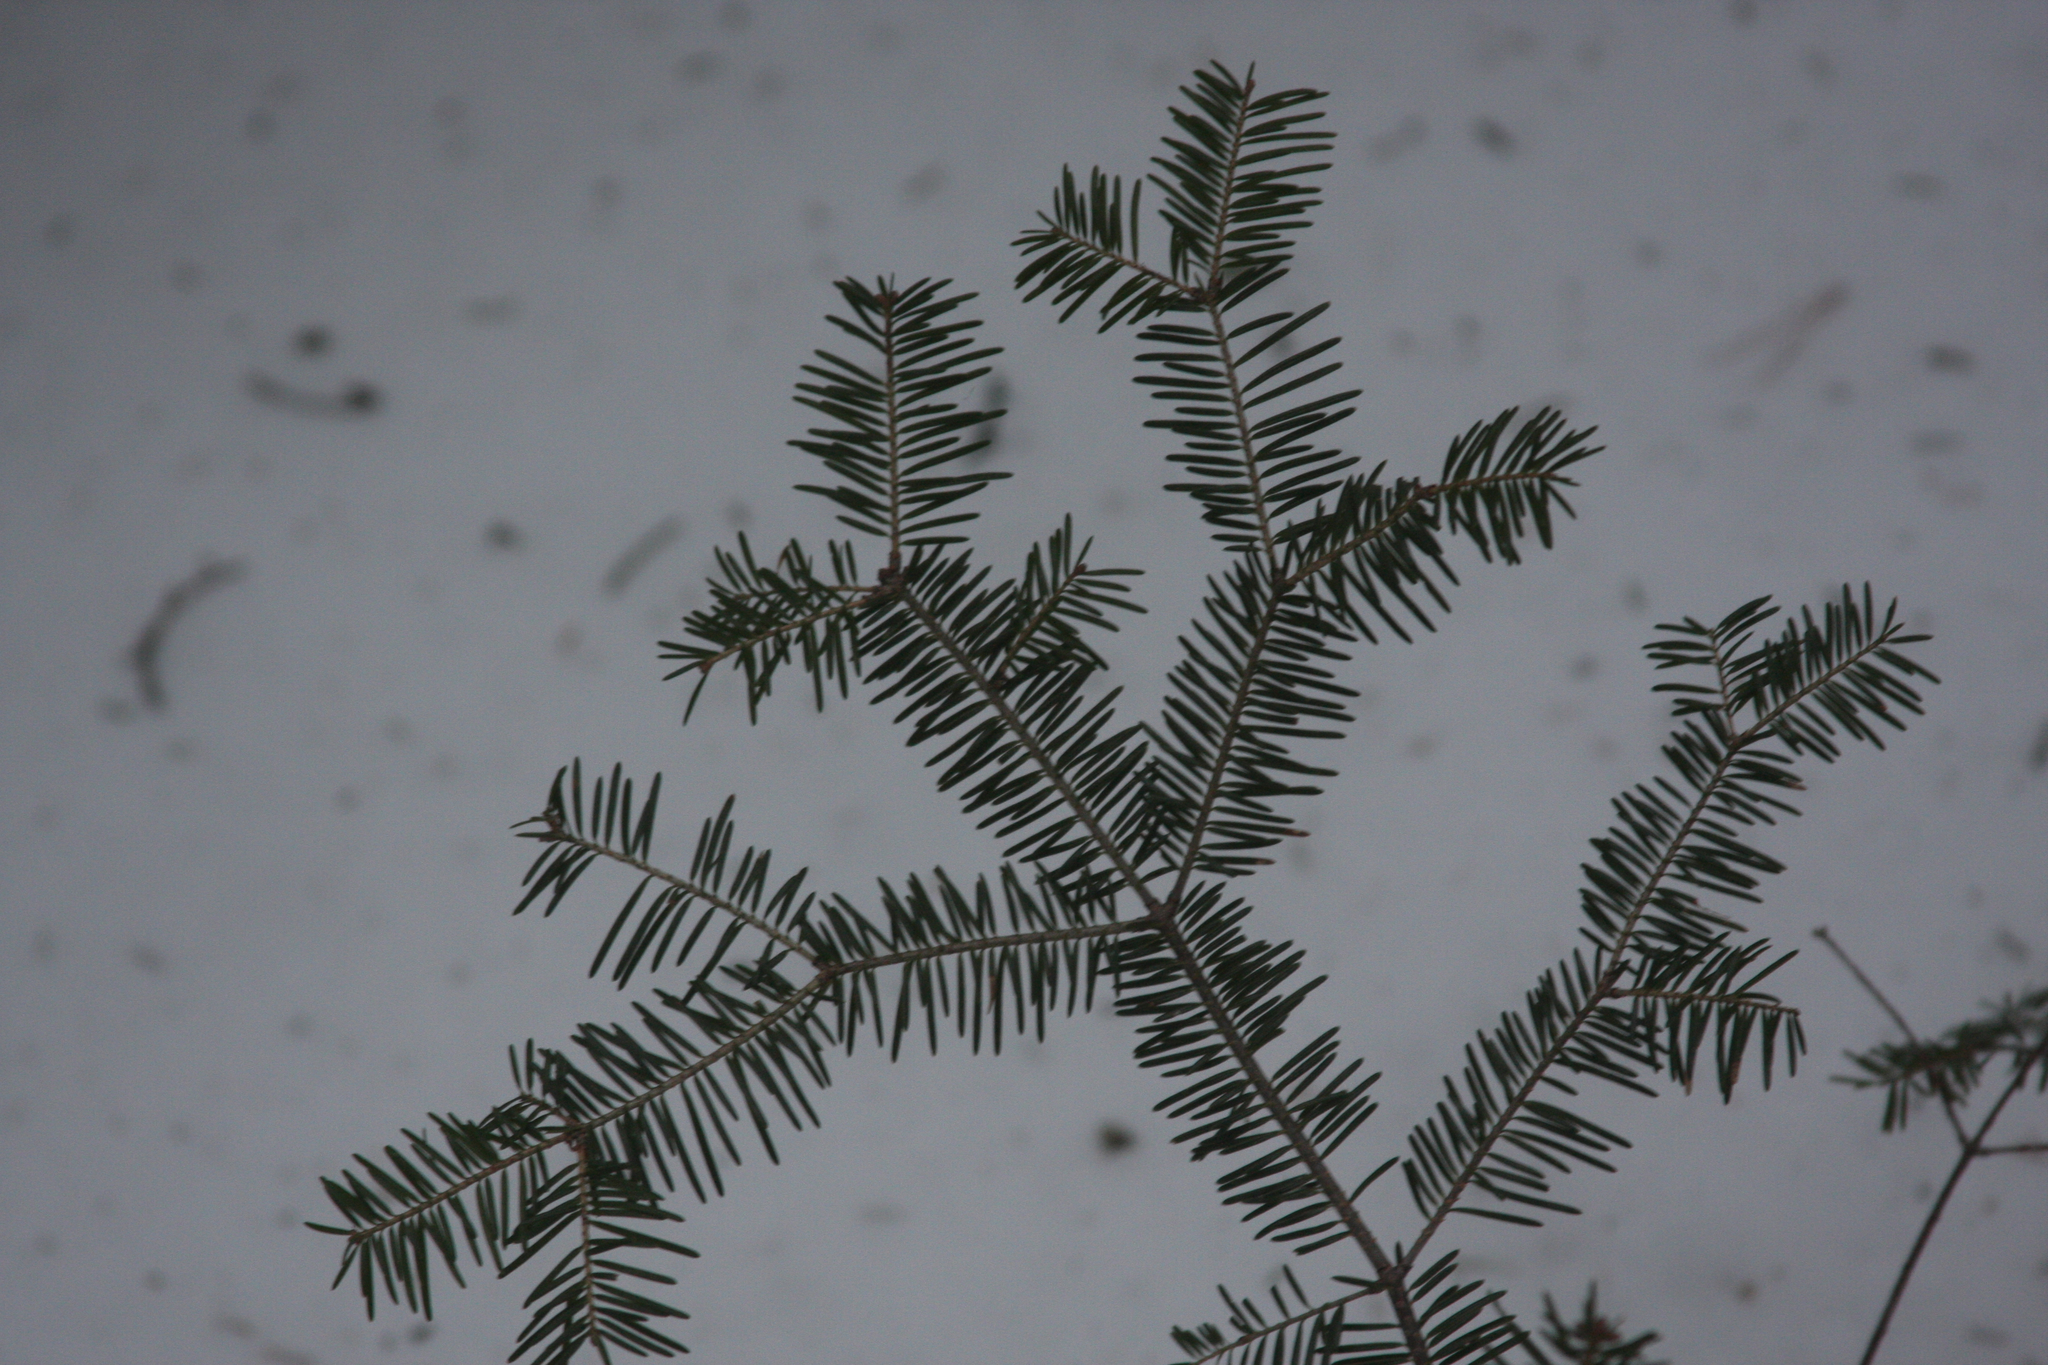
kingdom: Plantae
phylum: Tracheophyta
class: Pinopsida
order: Pinales
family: Pinaceae
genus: Abies
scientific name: Abies balsamea
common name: Balsam fir
